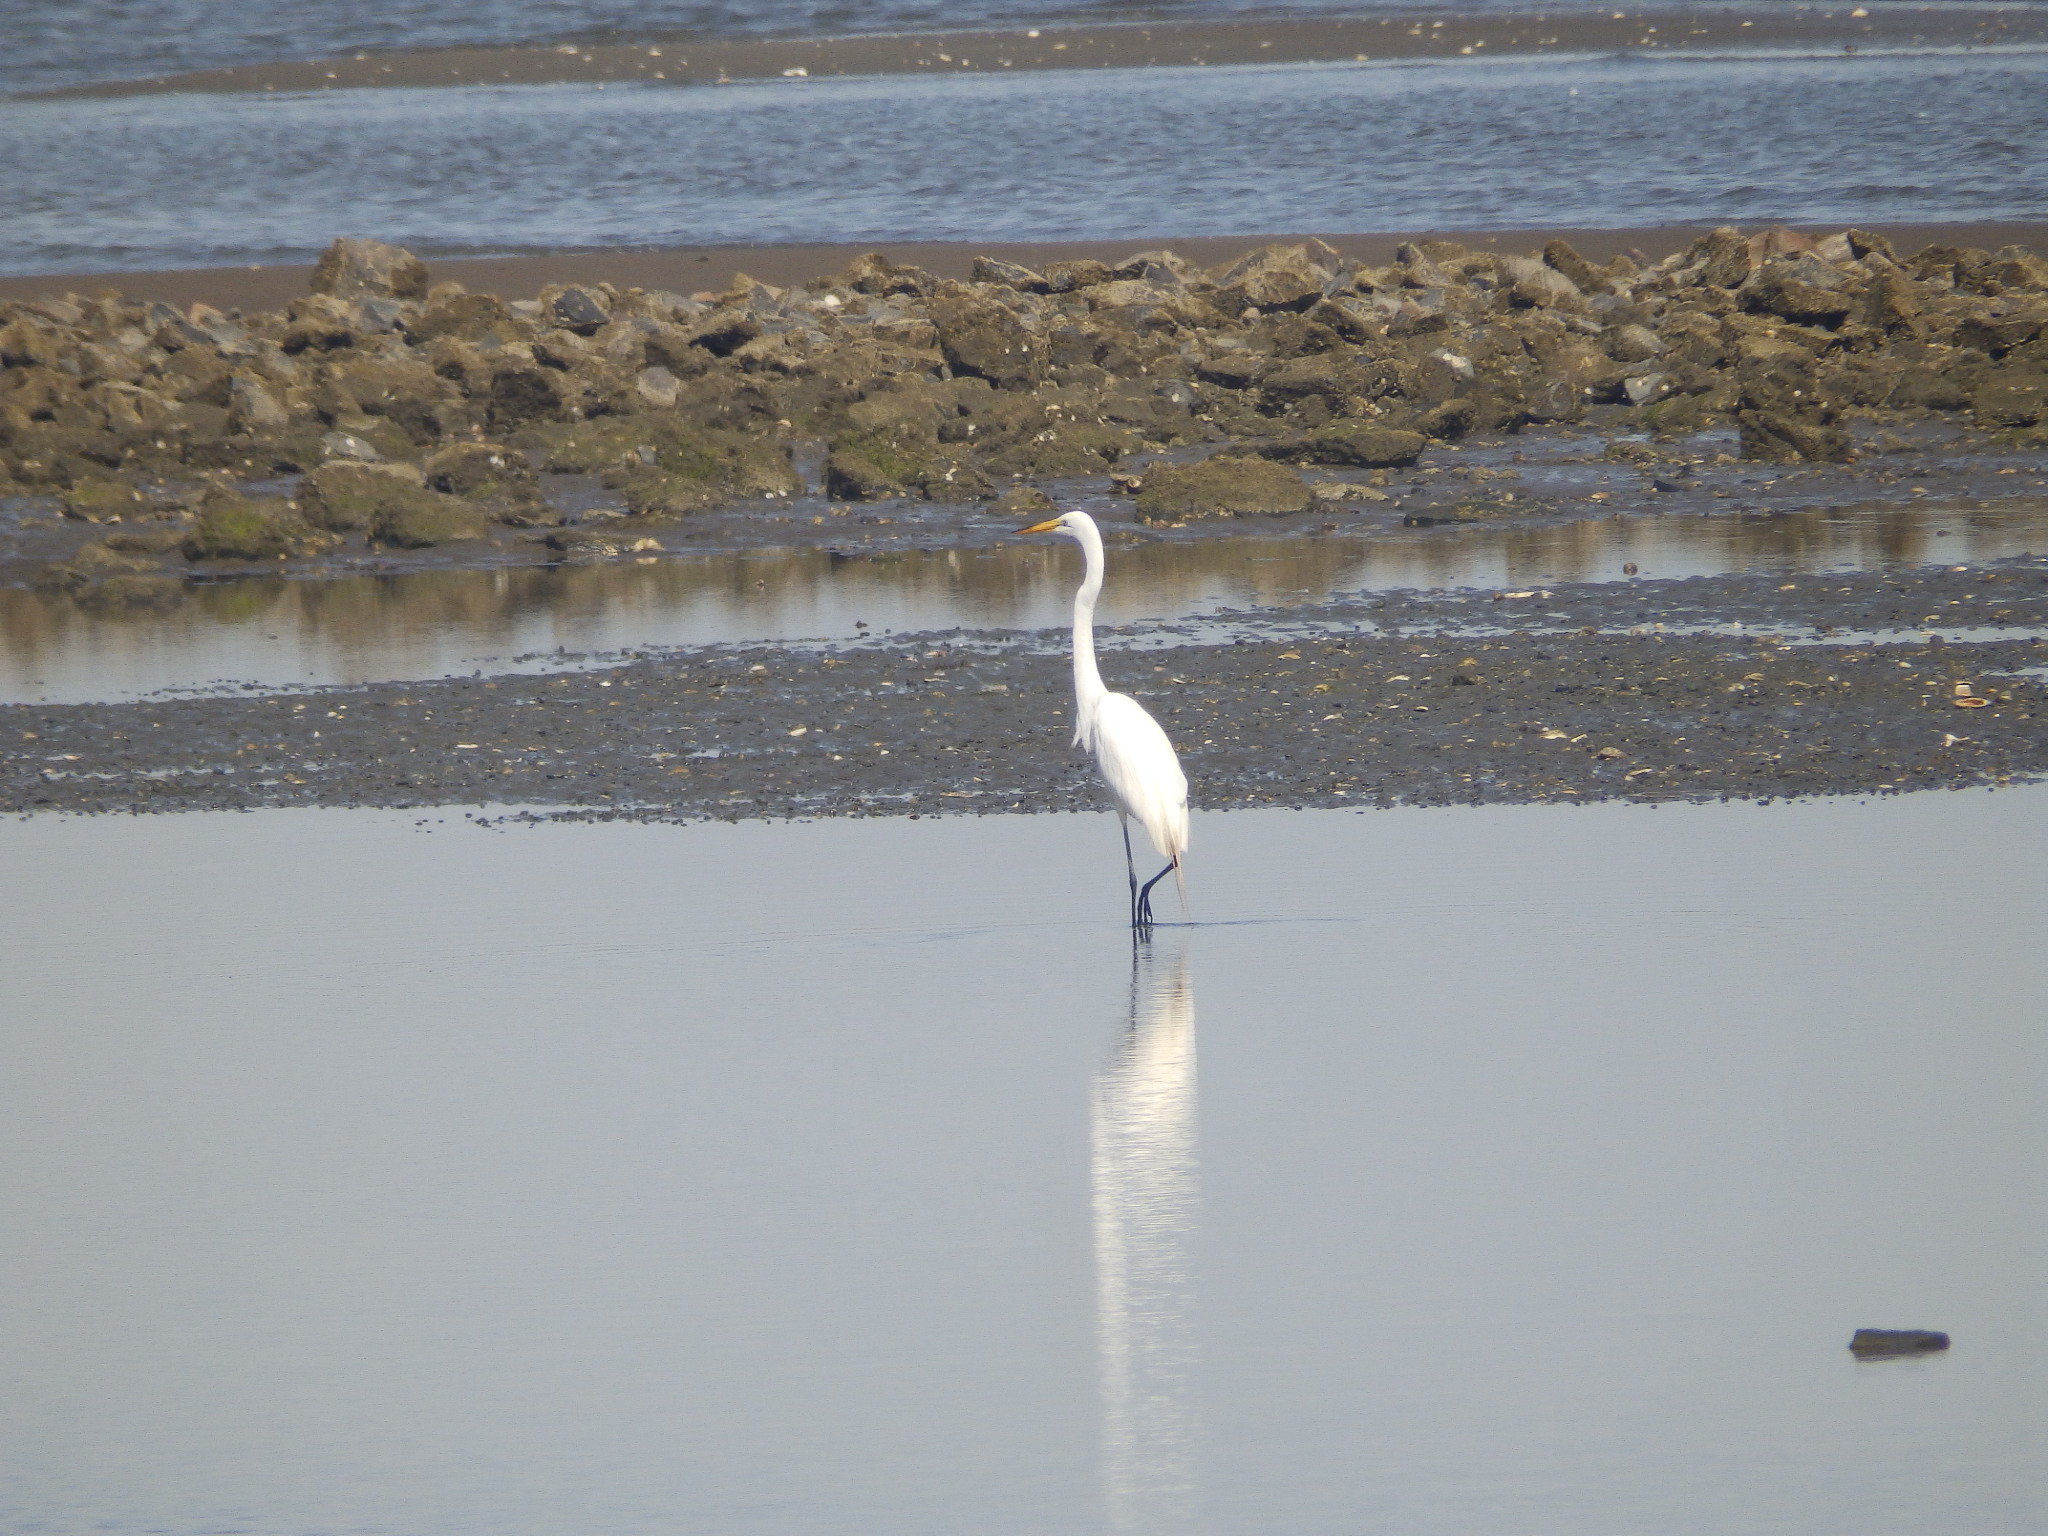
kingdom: Animalia
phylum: Chordata
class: Aves
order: Pelecaniformes
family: Ardeidae
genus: Ardea
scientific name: Ardea alba
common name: Great egret
